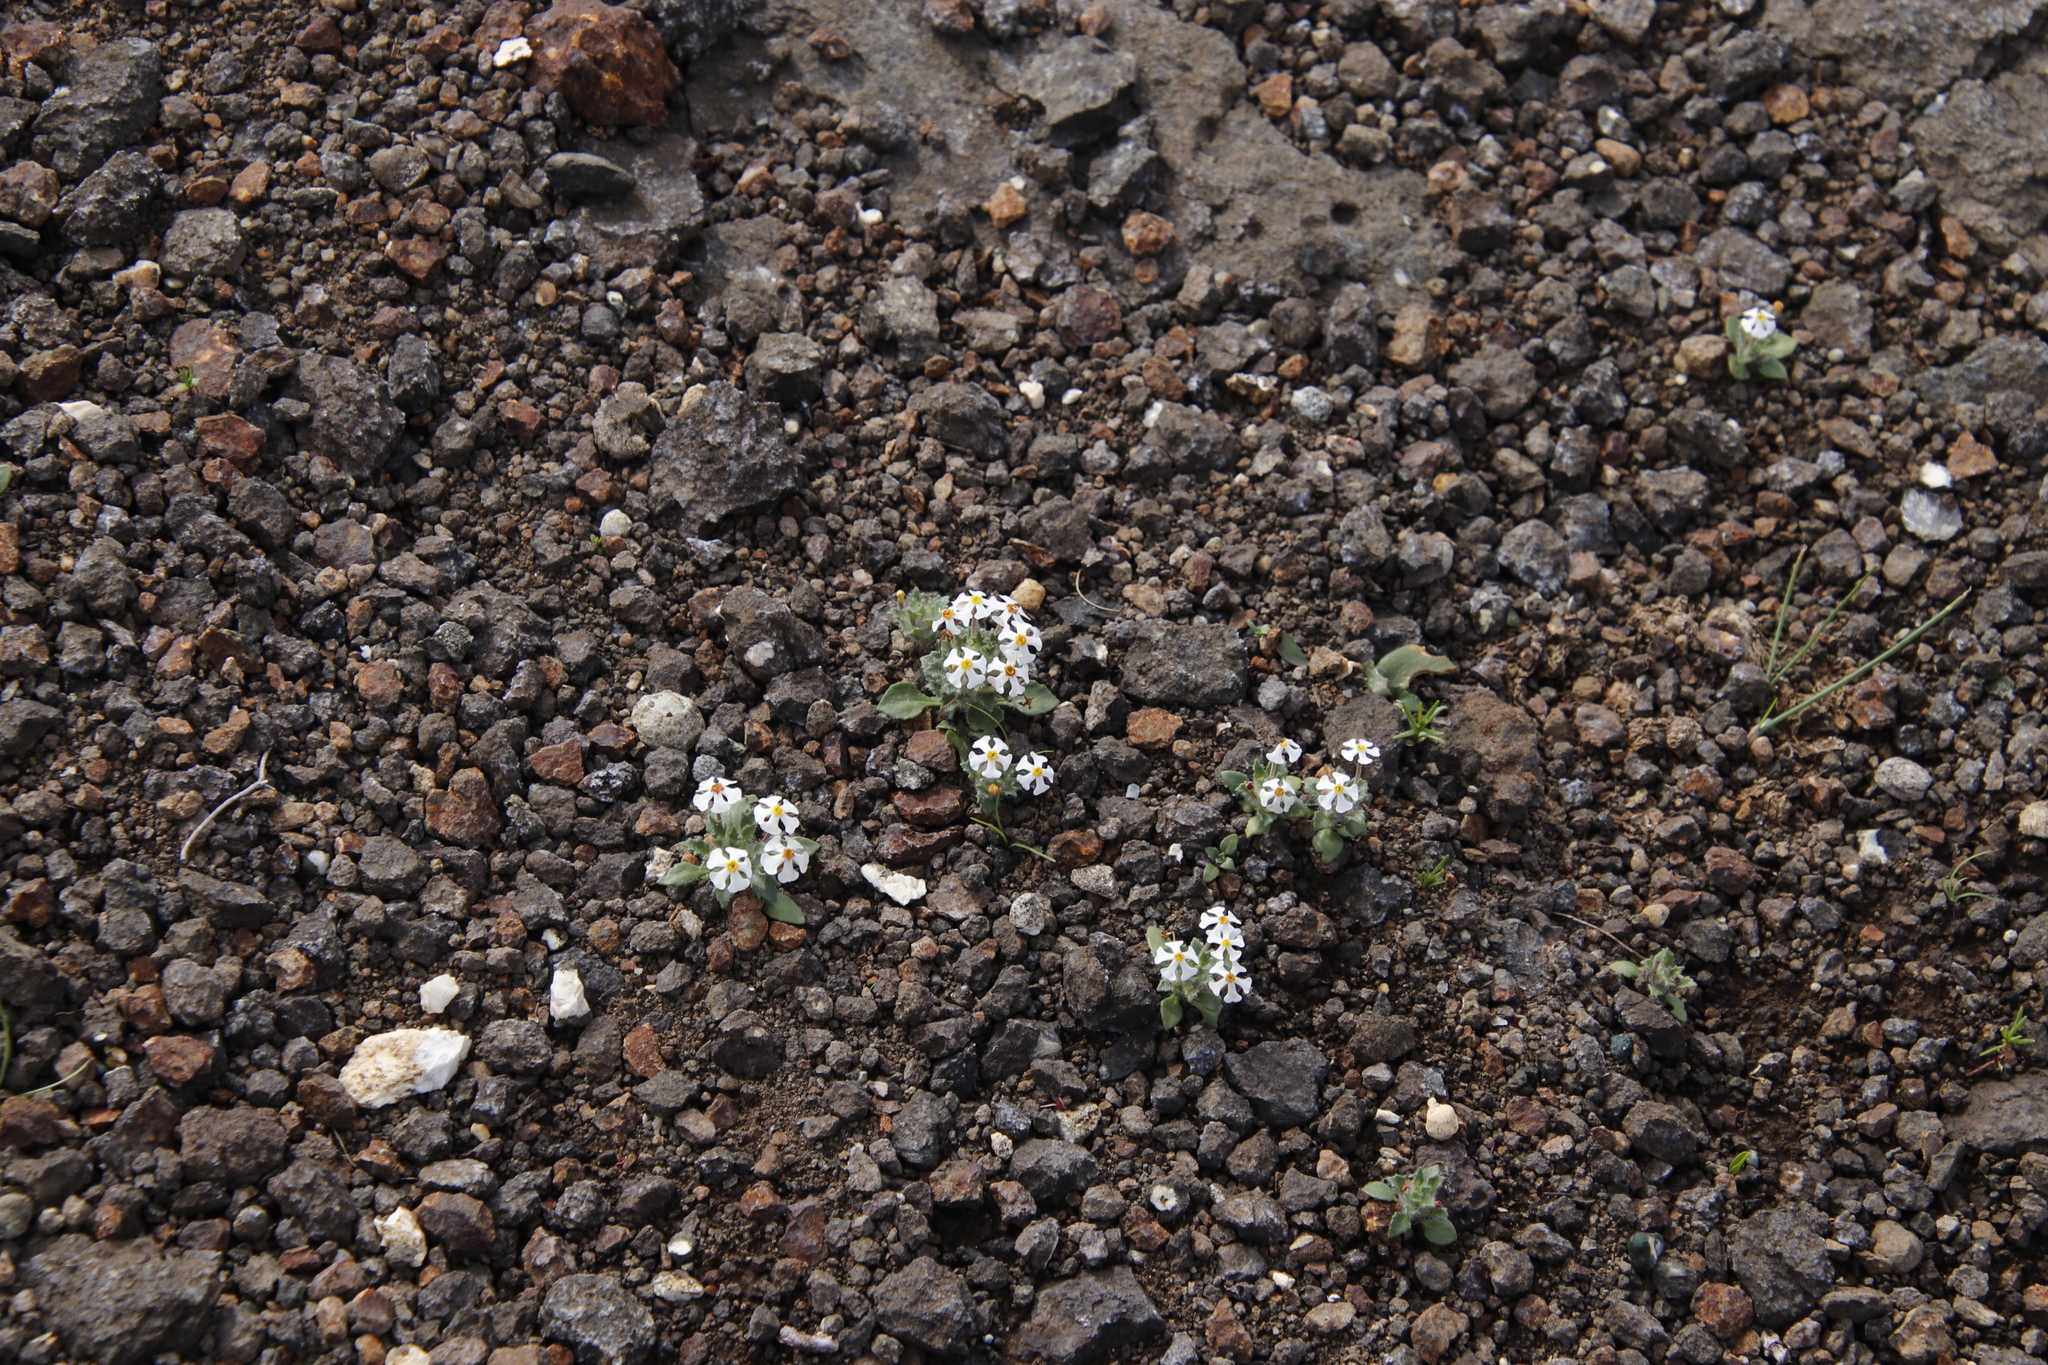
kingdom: Plantae
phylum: Tracheophyta
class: Magnoliopsida
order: Lamiales
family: Scrophulariaceae
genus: Zaluzianskya
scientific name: Zaluzianskya crocea
